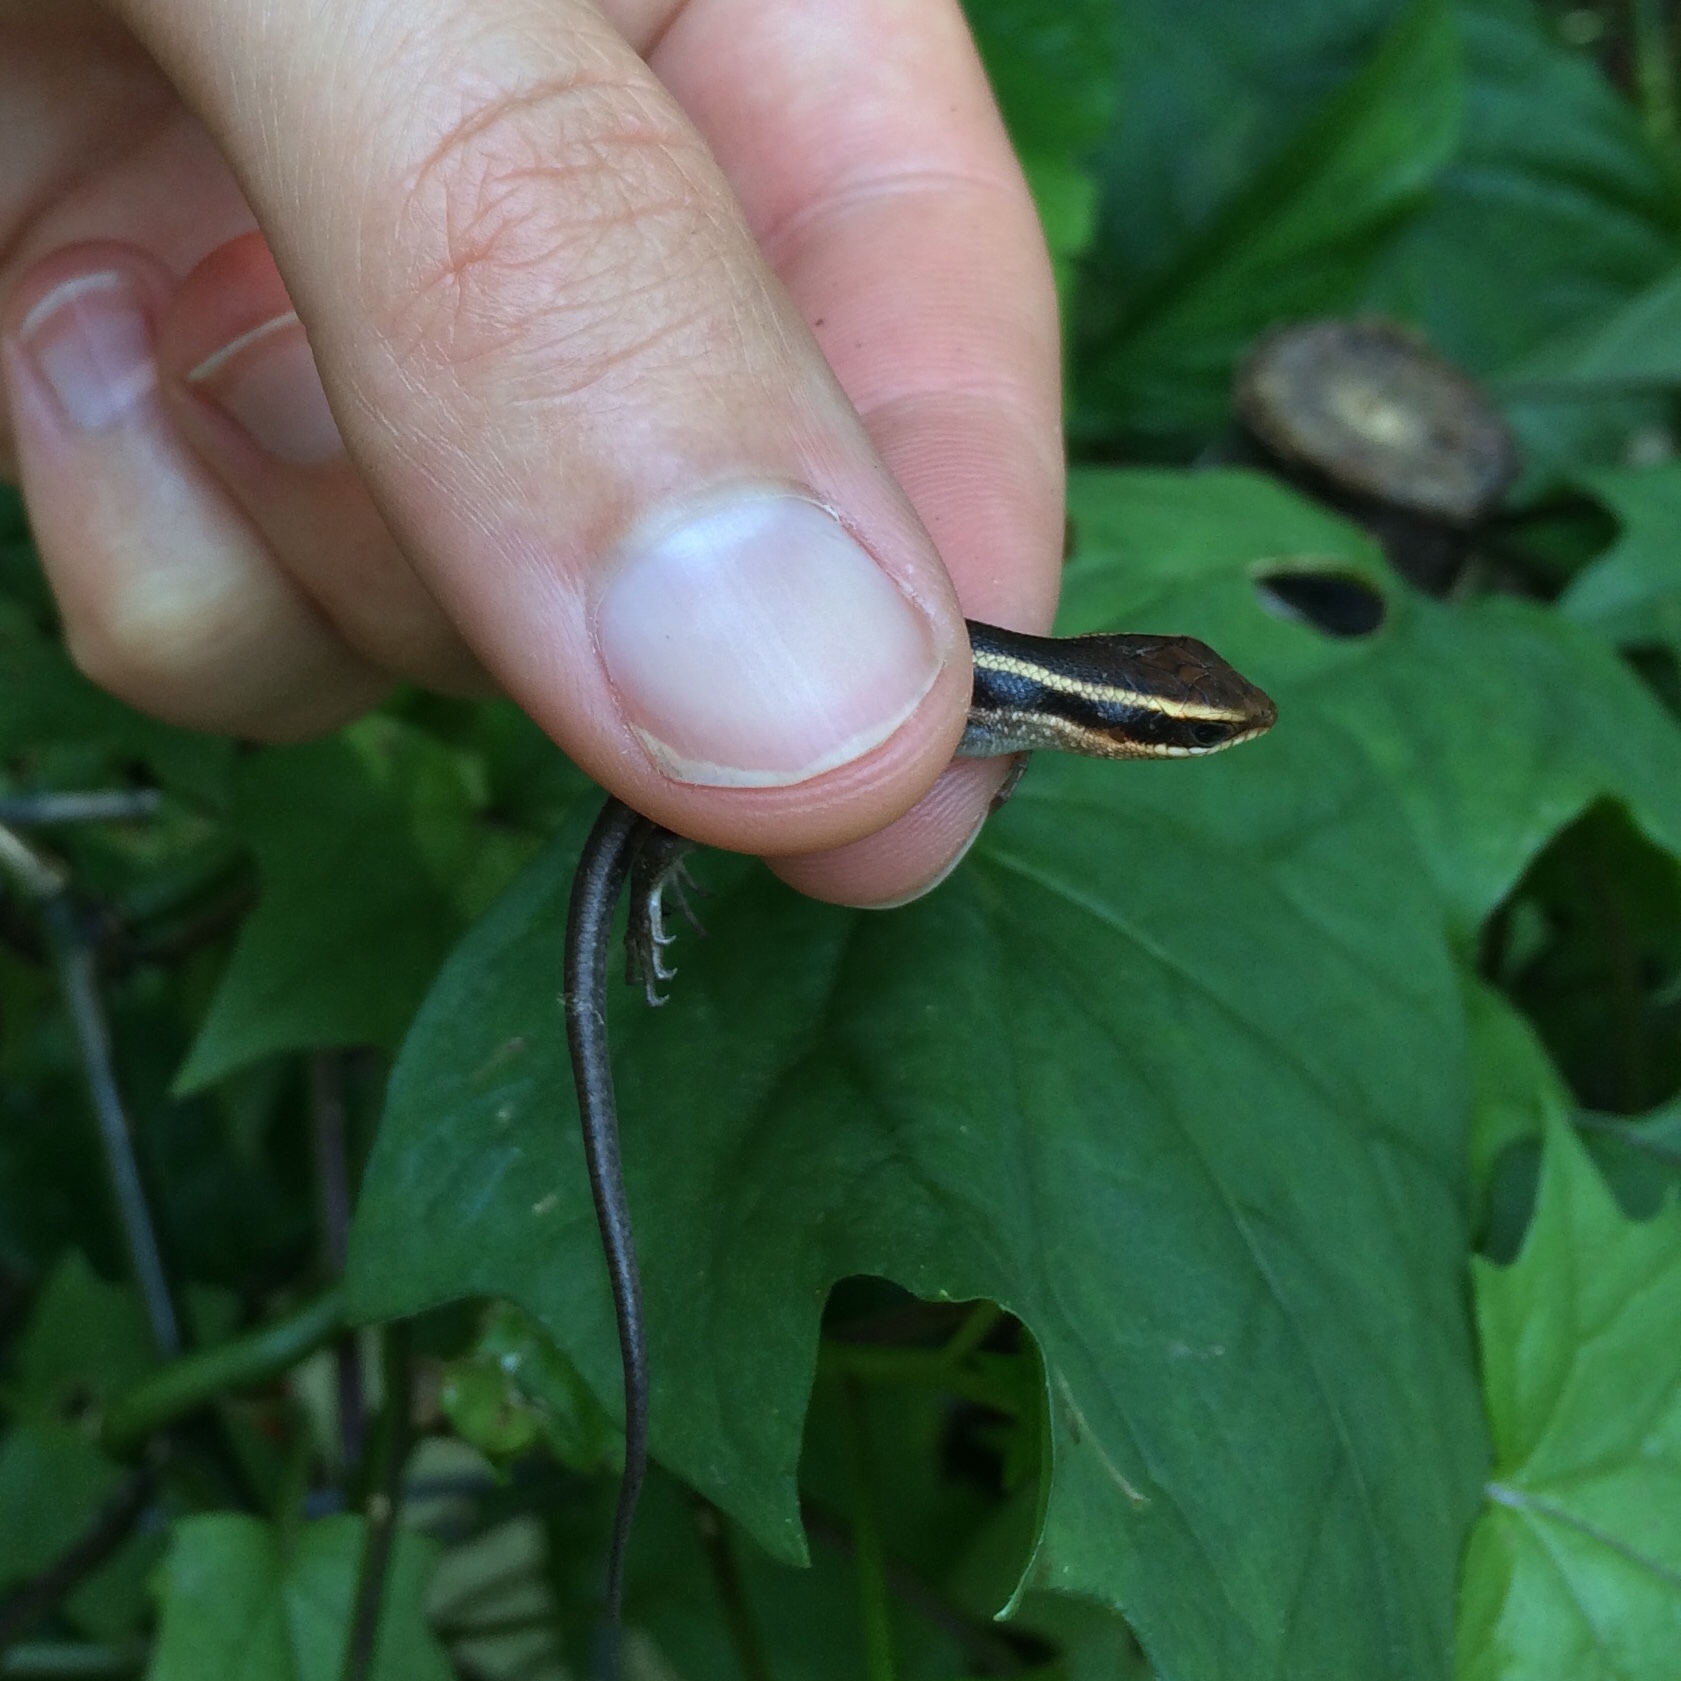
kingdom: Animalia
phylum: Chordata
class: Squamata
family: Scincidae
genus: Trachylepis
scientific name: Trachylepis striata
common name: African striped mabuya
